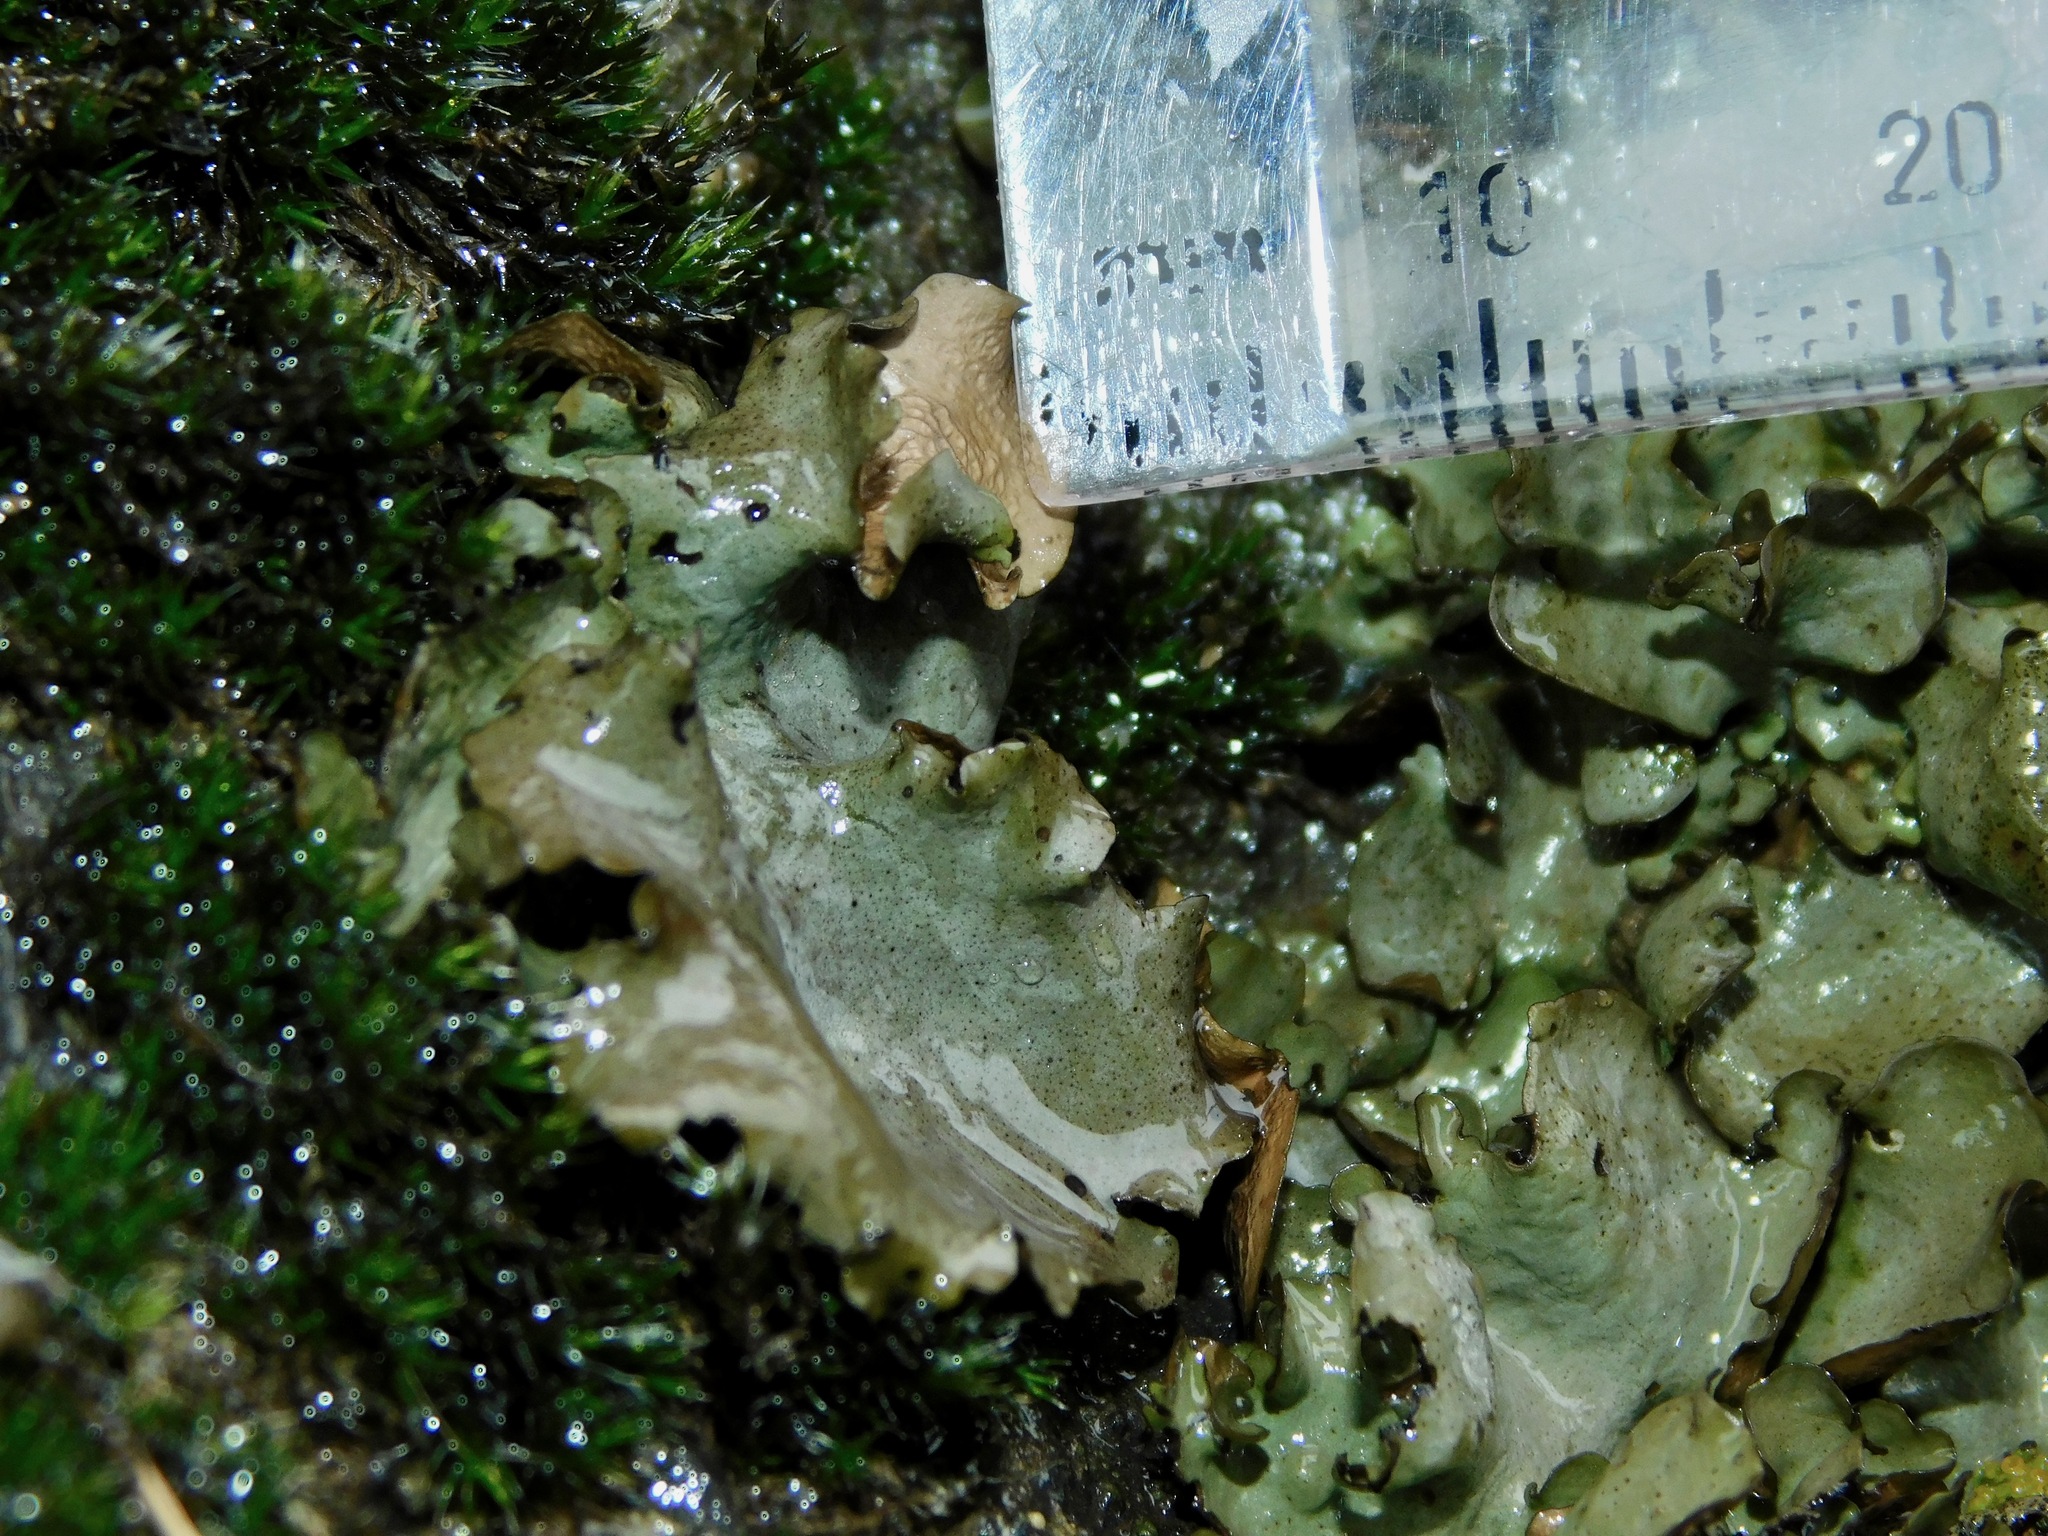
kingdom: Fungi
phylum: Ascomycota
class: Eurotiomycetes
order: Verrucariales
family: Verrucariaceae
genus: Dermatocarpon
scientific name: Dermatocarpon arenosaxi
